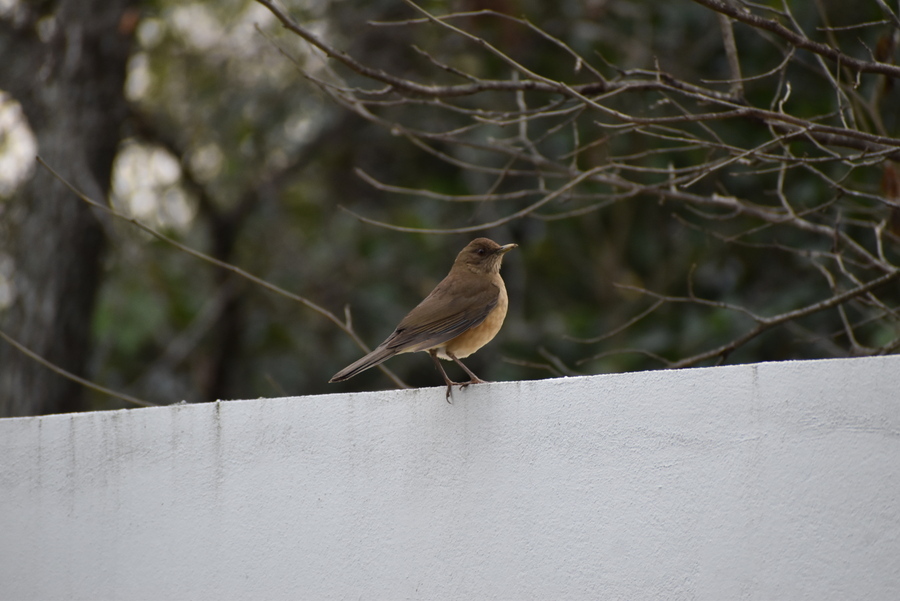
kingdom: Animalia
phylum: Chordata
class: Aves
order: Passeriformes
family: Turdidae
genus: Turdus
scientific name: Turdus grayi
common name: Clay-colored thrush
